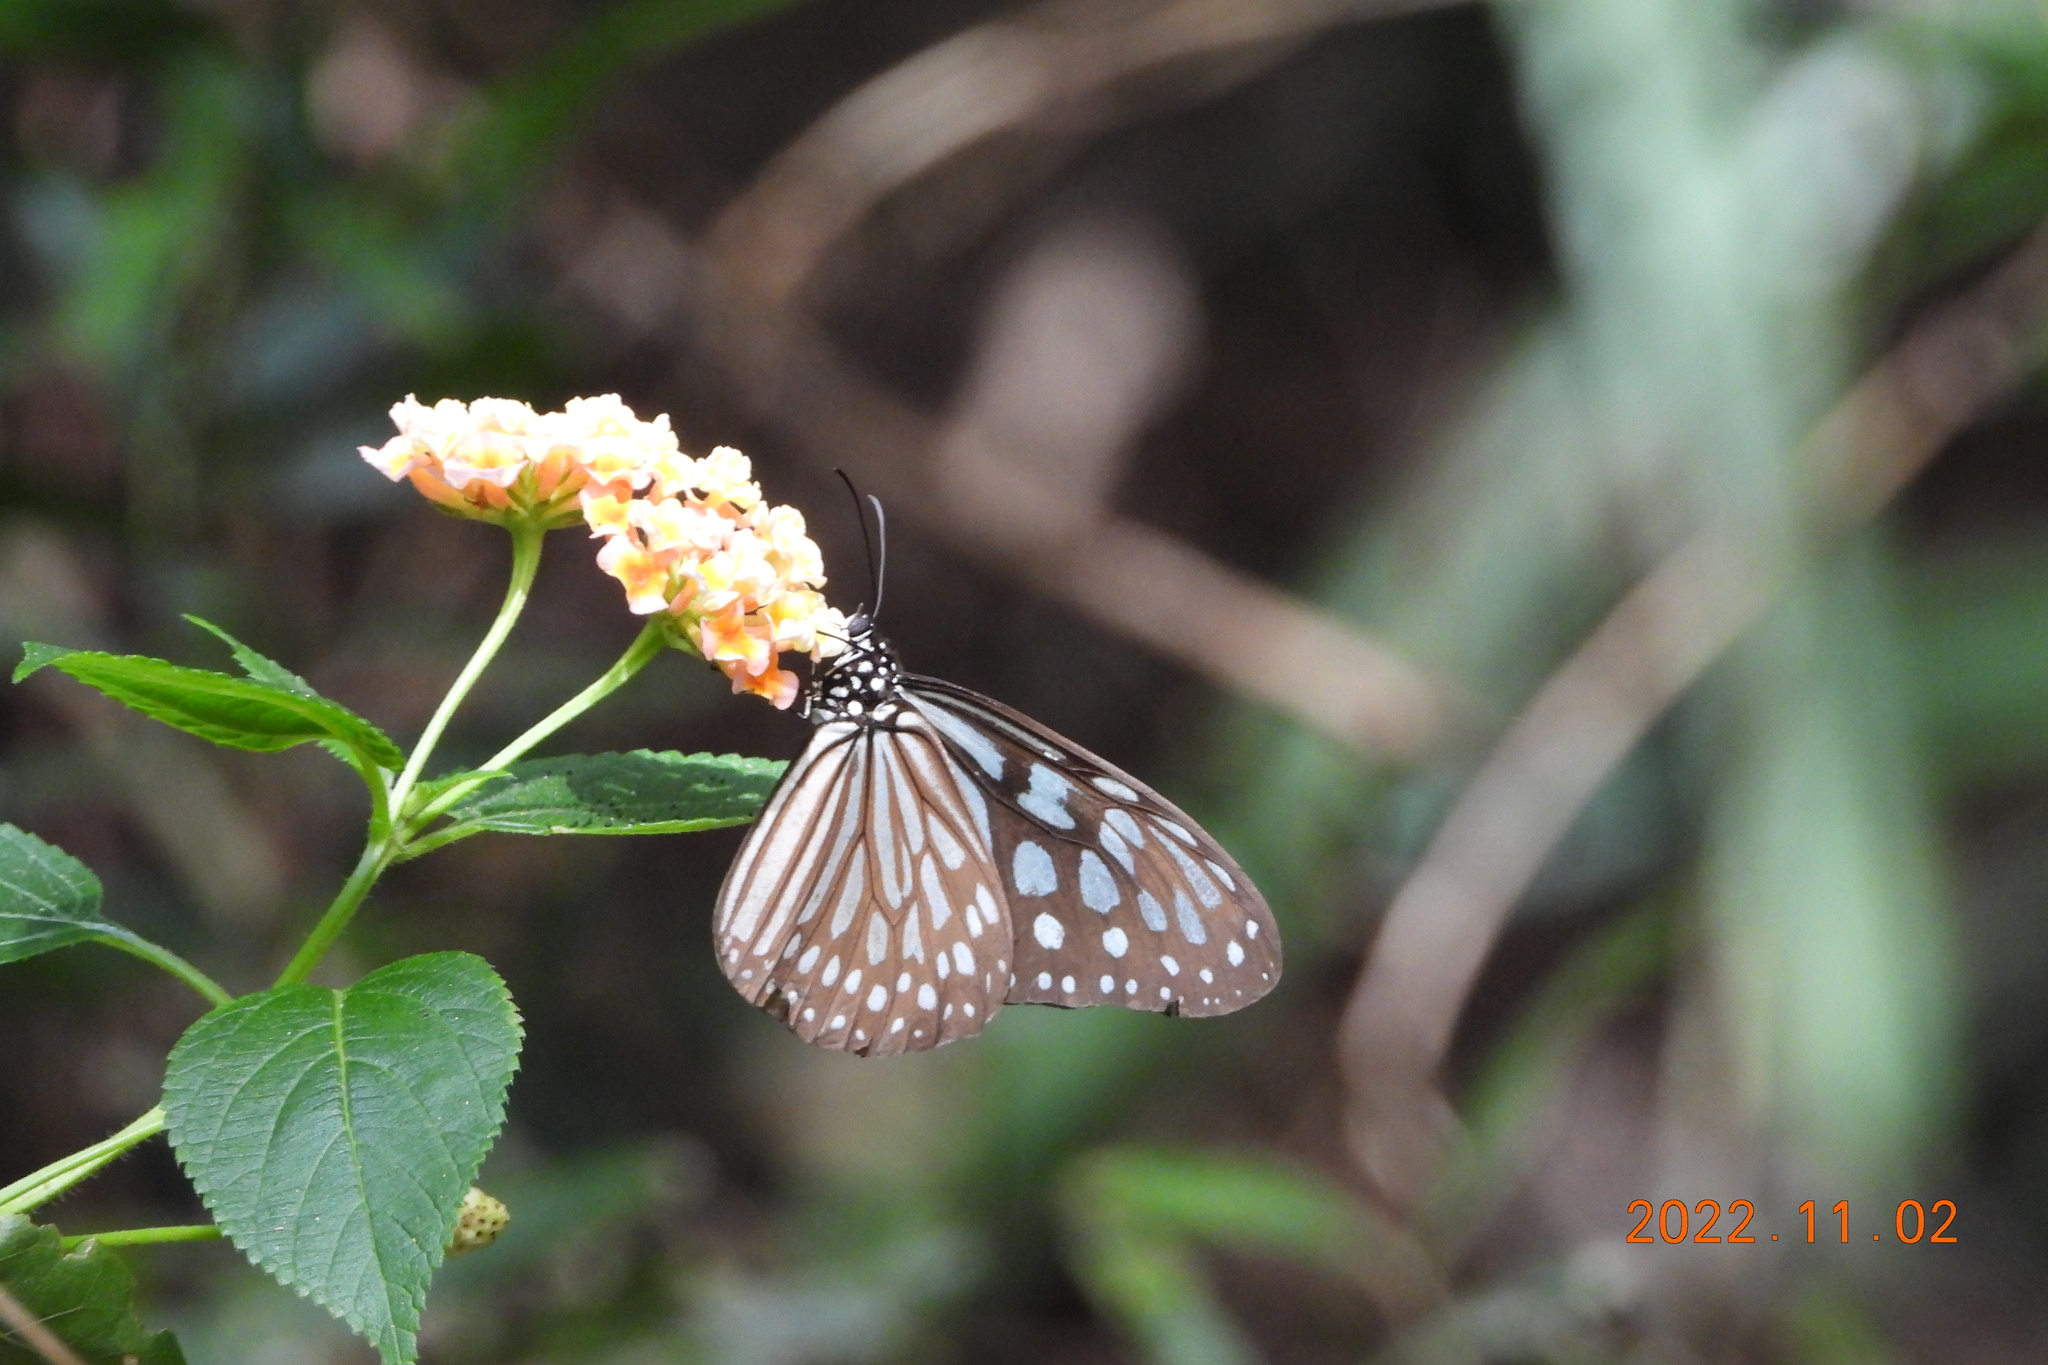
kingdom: Animalia
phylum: Arthropoda
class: Insecta
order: Lepidoptera
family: Nymphalidae
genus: Ideopsis
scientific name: Ideopsis similis
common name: Ceylon blue glassy tiger
